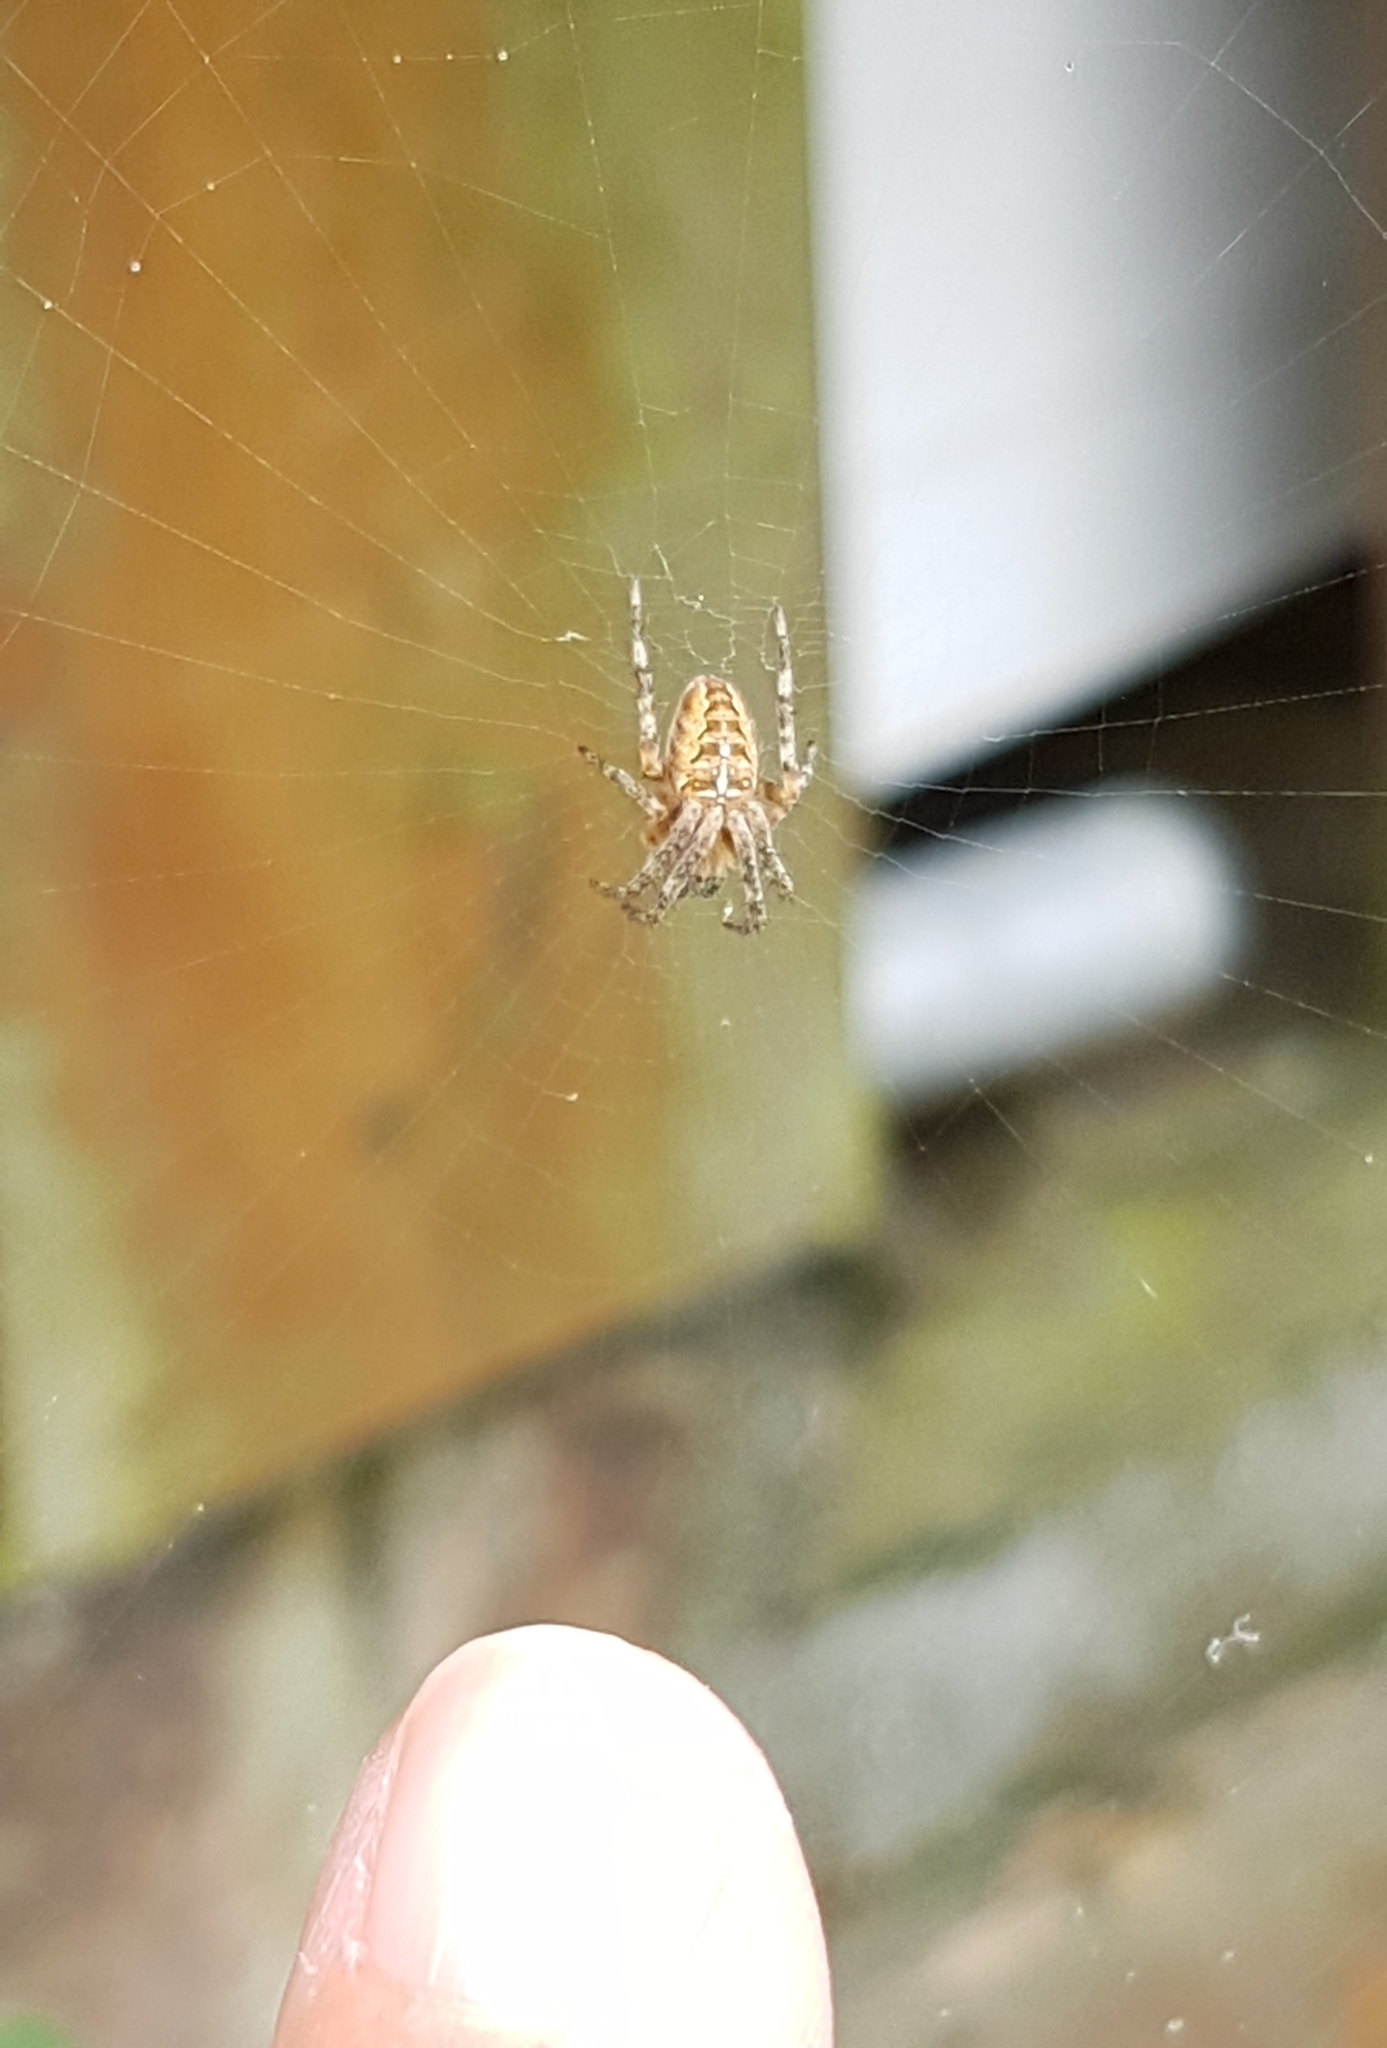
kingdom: Animalia
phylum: Arthropoda
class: Arachnida
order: Araneae
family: Araneidae
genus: Araneus
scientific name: Araneus diadematus
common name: Cross orbweaver
